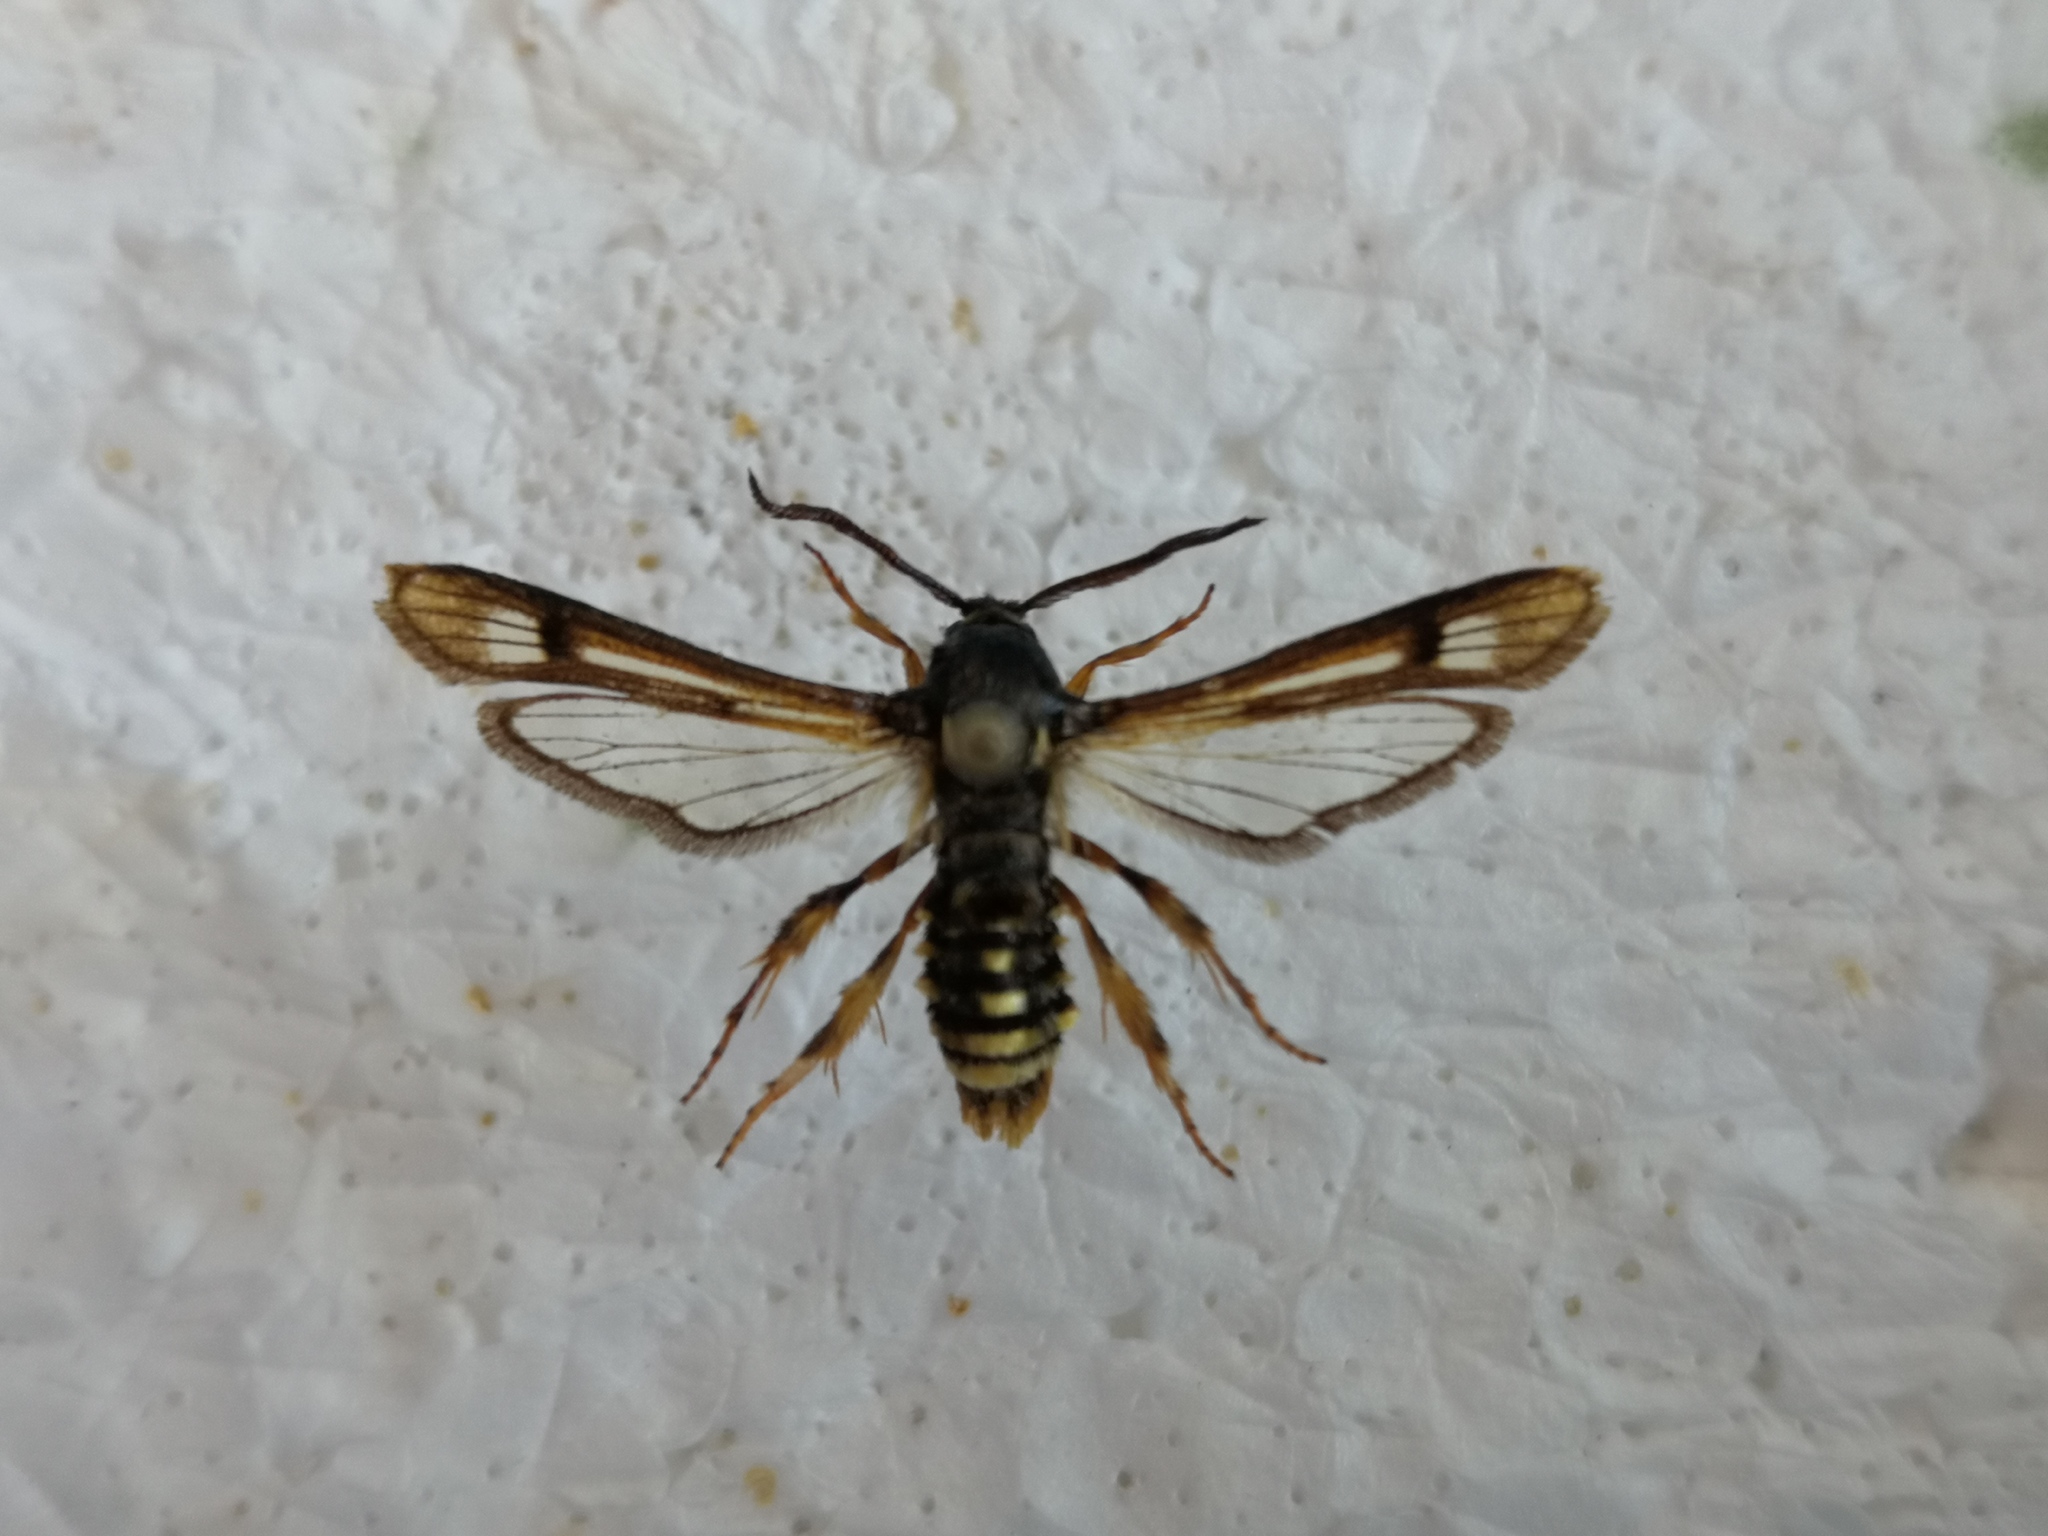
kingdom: Animalia
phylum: Arthropoda
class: Insecta
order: Lepidoptera
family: Sesiidae
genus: Pennisetia
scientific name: Pennisetia hylaeiformis
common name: Raspberry clearwing
